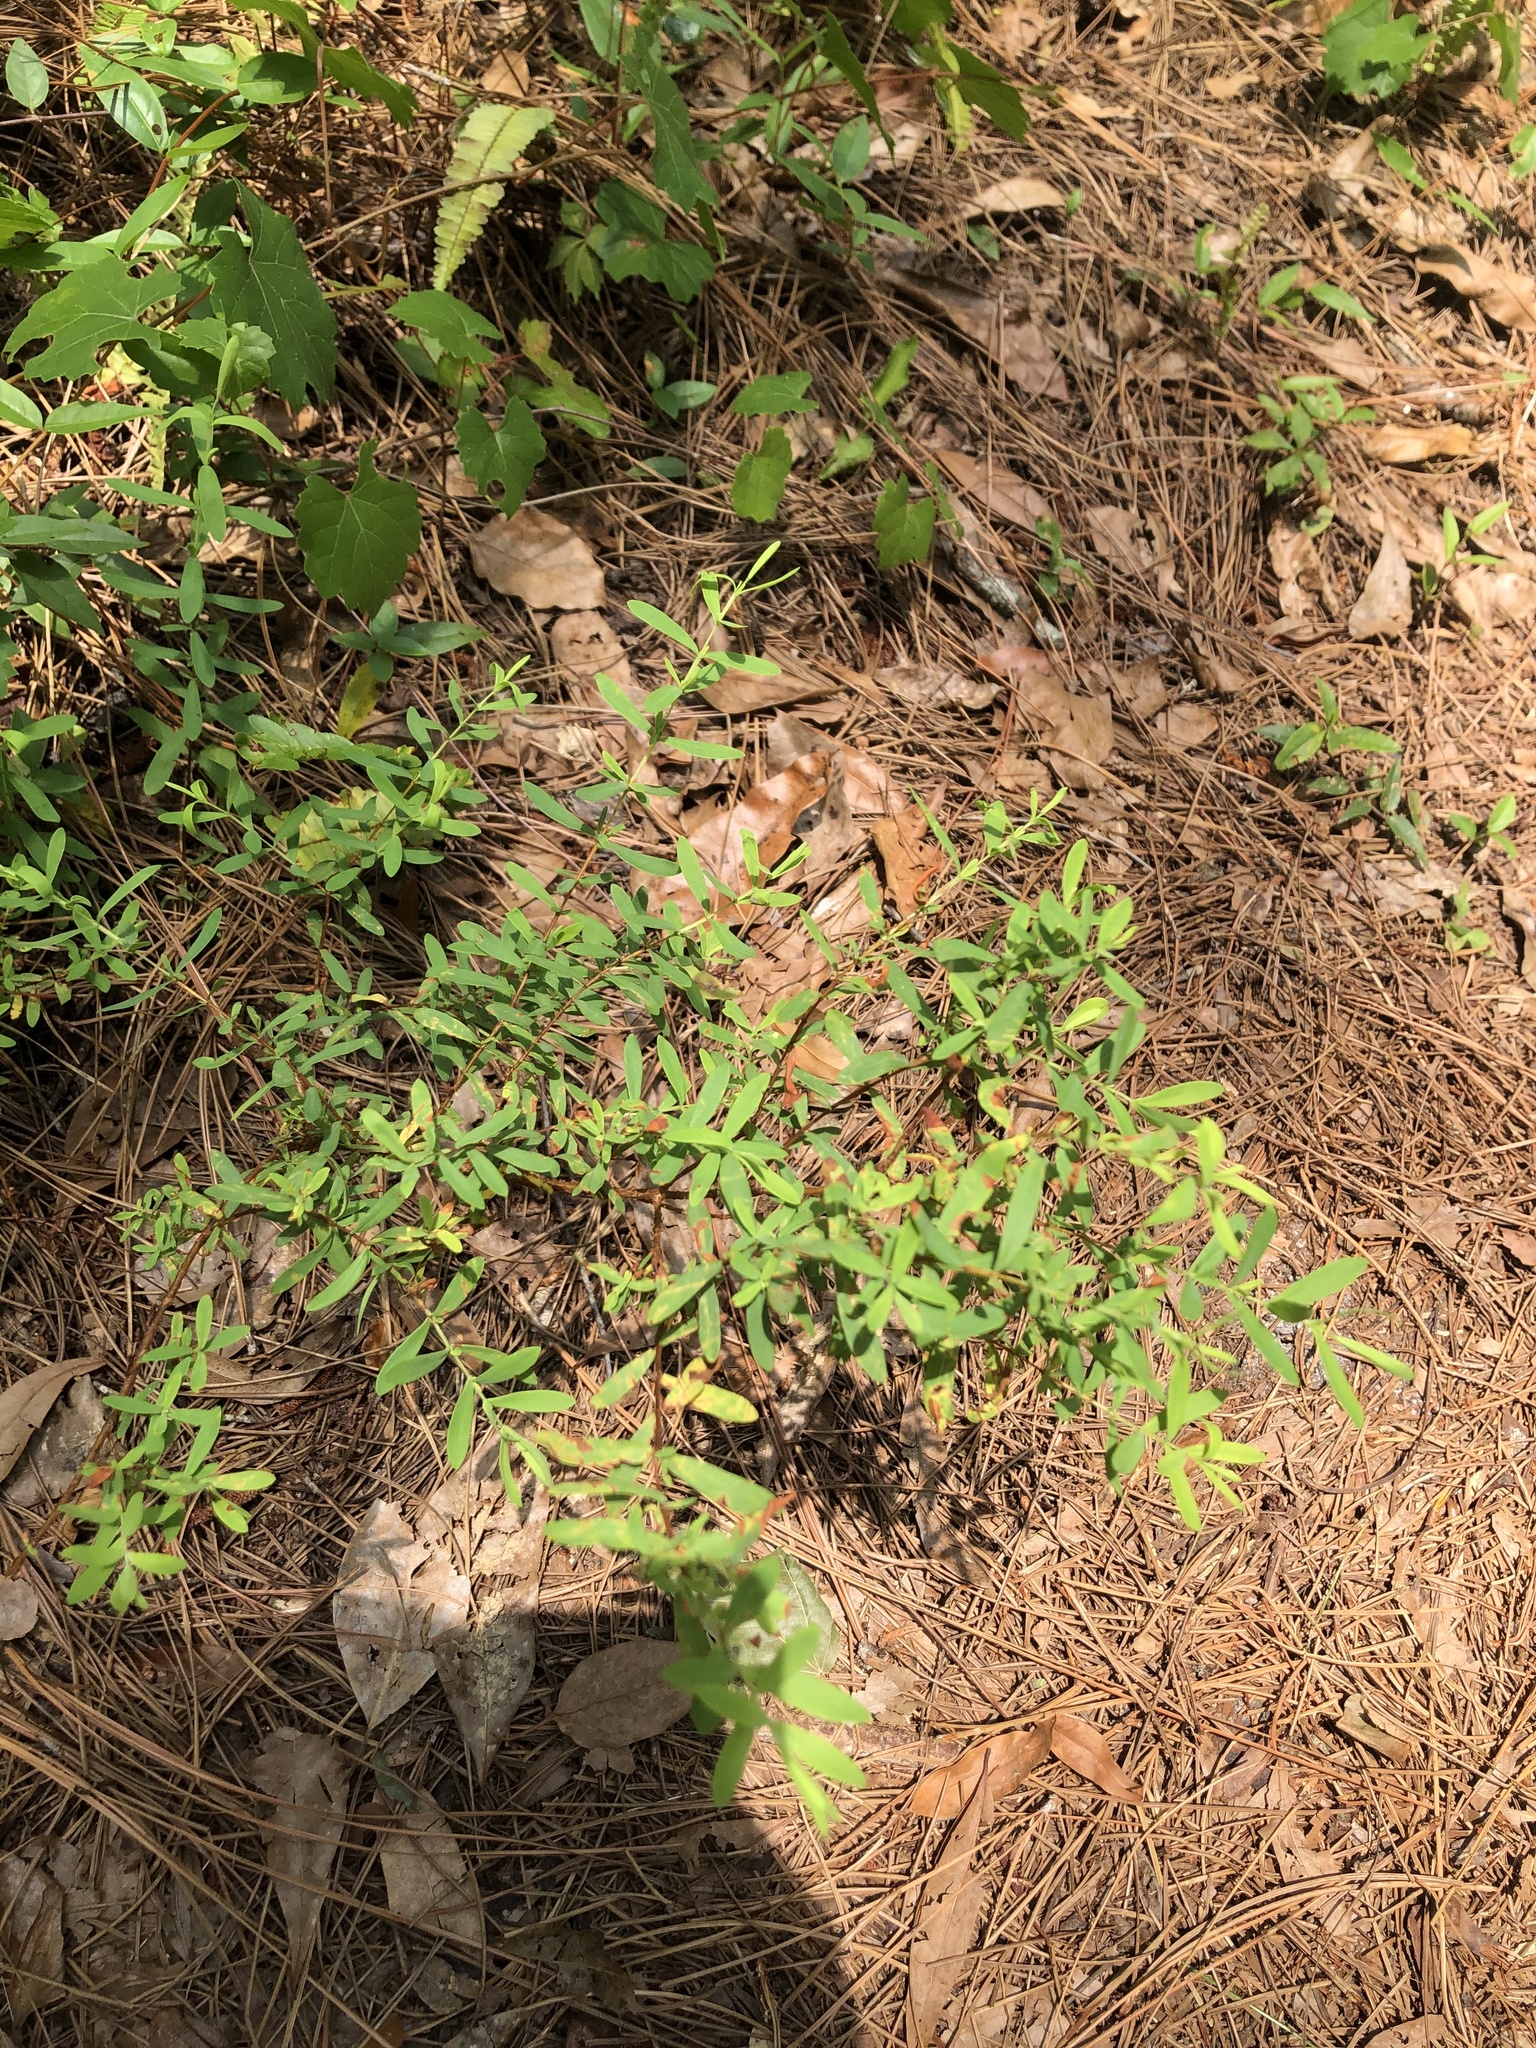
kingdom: Plantae
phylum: Tracheophyta
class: Magnoliopsida
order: Malpighiales
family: Hypericaceae
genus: Hypericum
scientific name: Hypericum hypericoides
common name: St. andrew's cross
